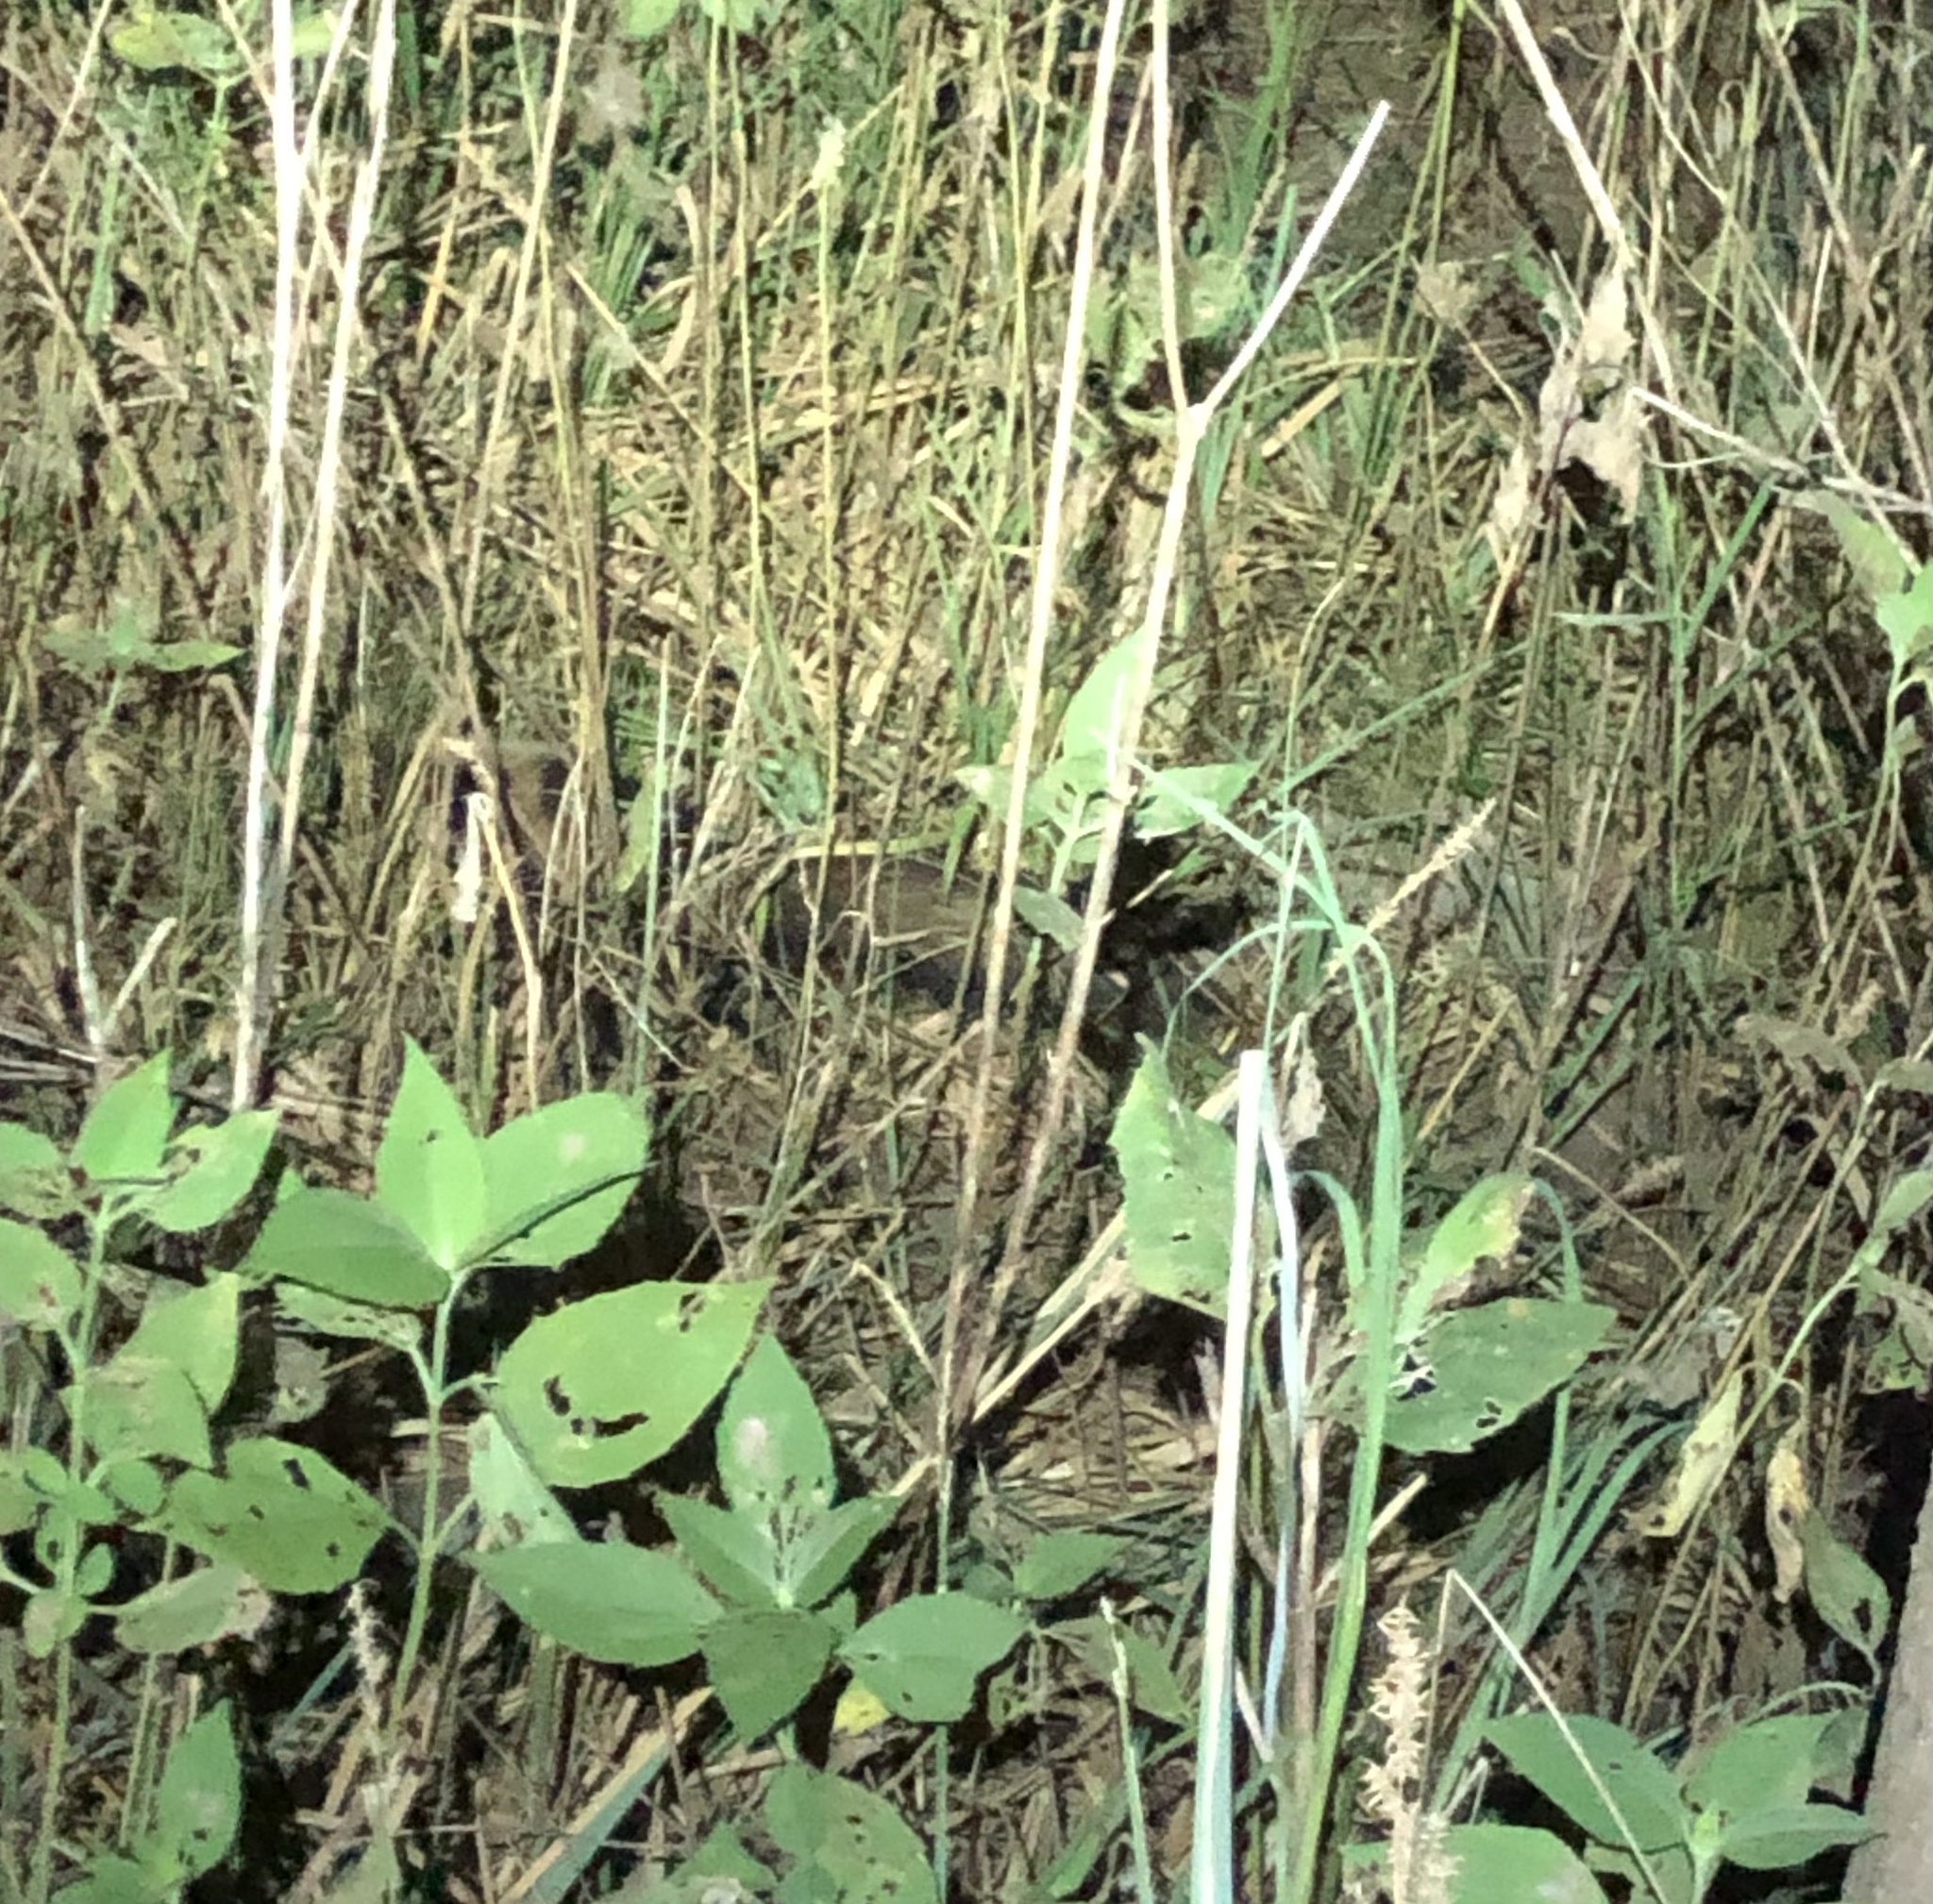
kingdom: Animalia
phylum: Chordata
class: Mammalia
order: Carnivora
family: Mephitidae
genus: Mephitis
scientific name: Mephitis mephitis
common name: Striped skunk
